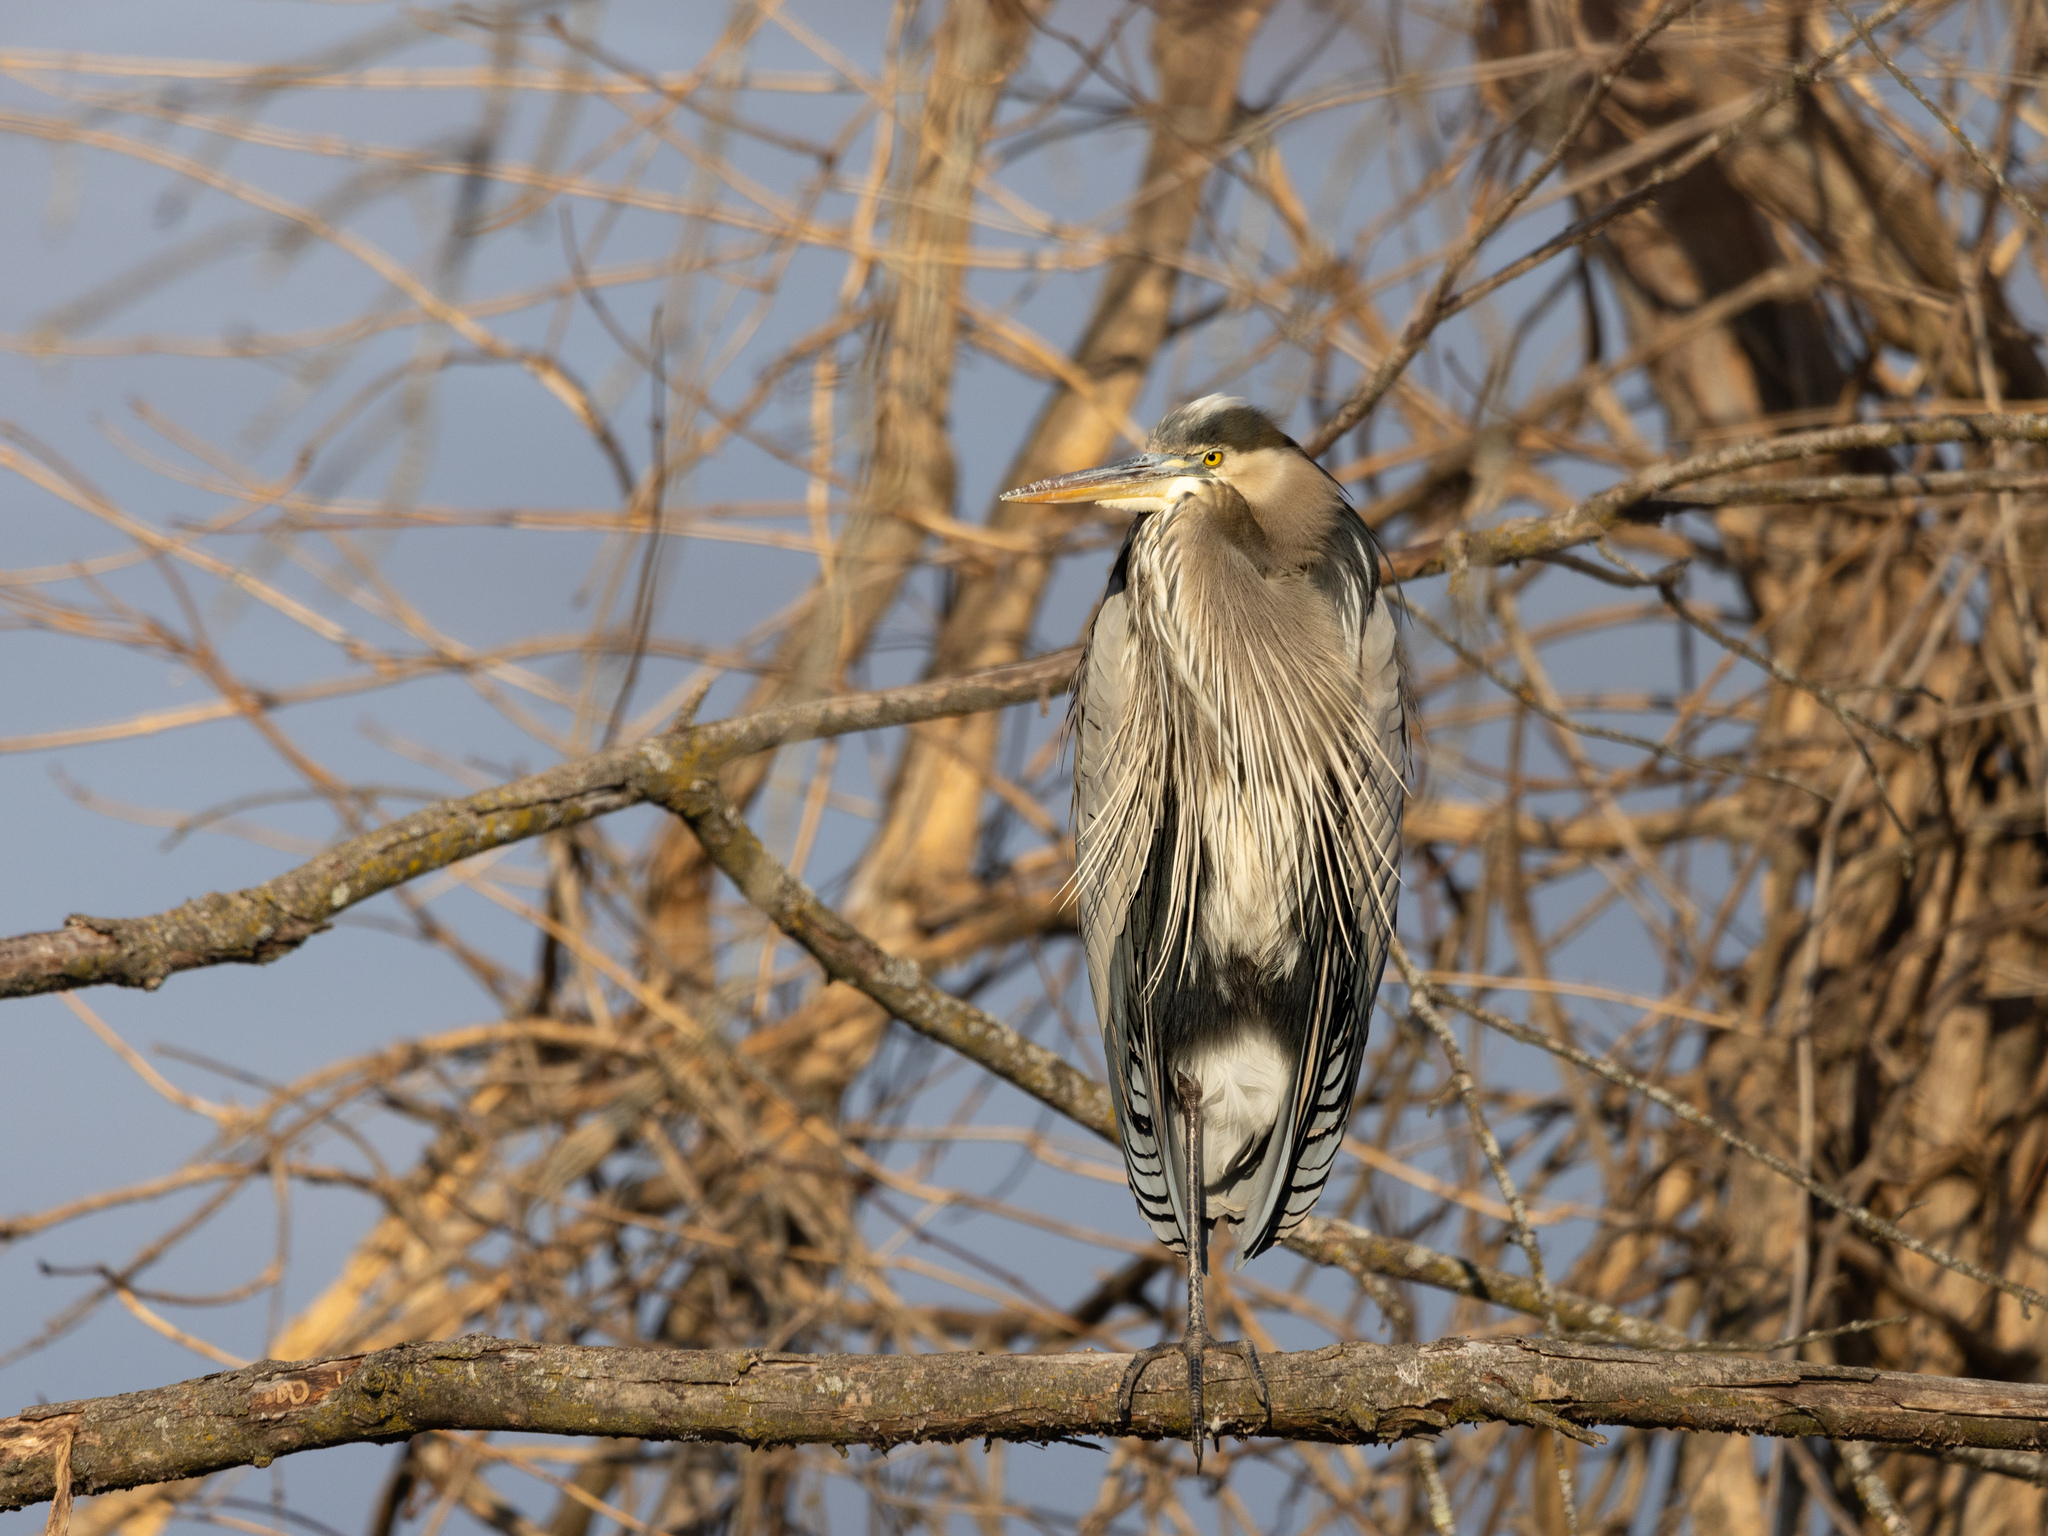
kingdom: Animalia
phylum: Chordata
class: Aves
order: Pelecaniformes
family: Ardeidae
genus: Ardea
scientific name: Ardea herodias
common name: Great blue heron
